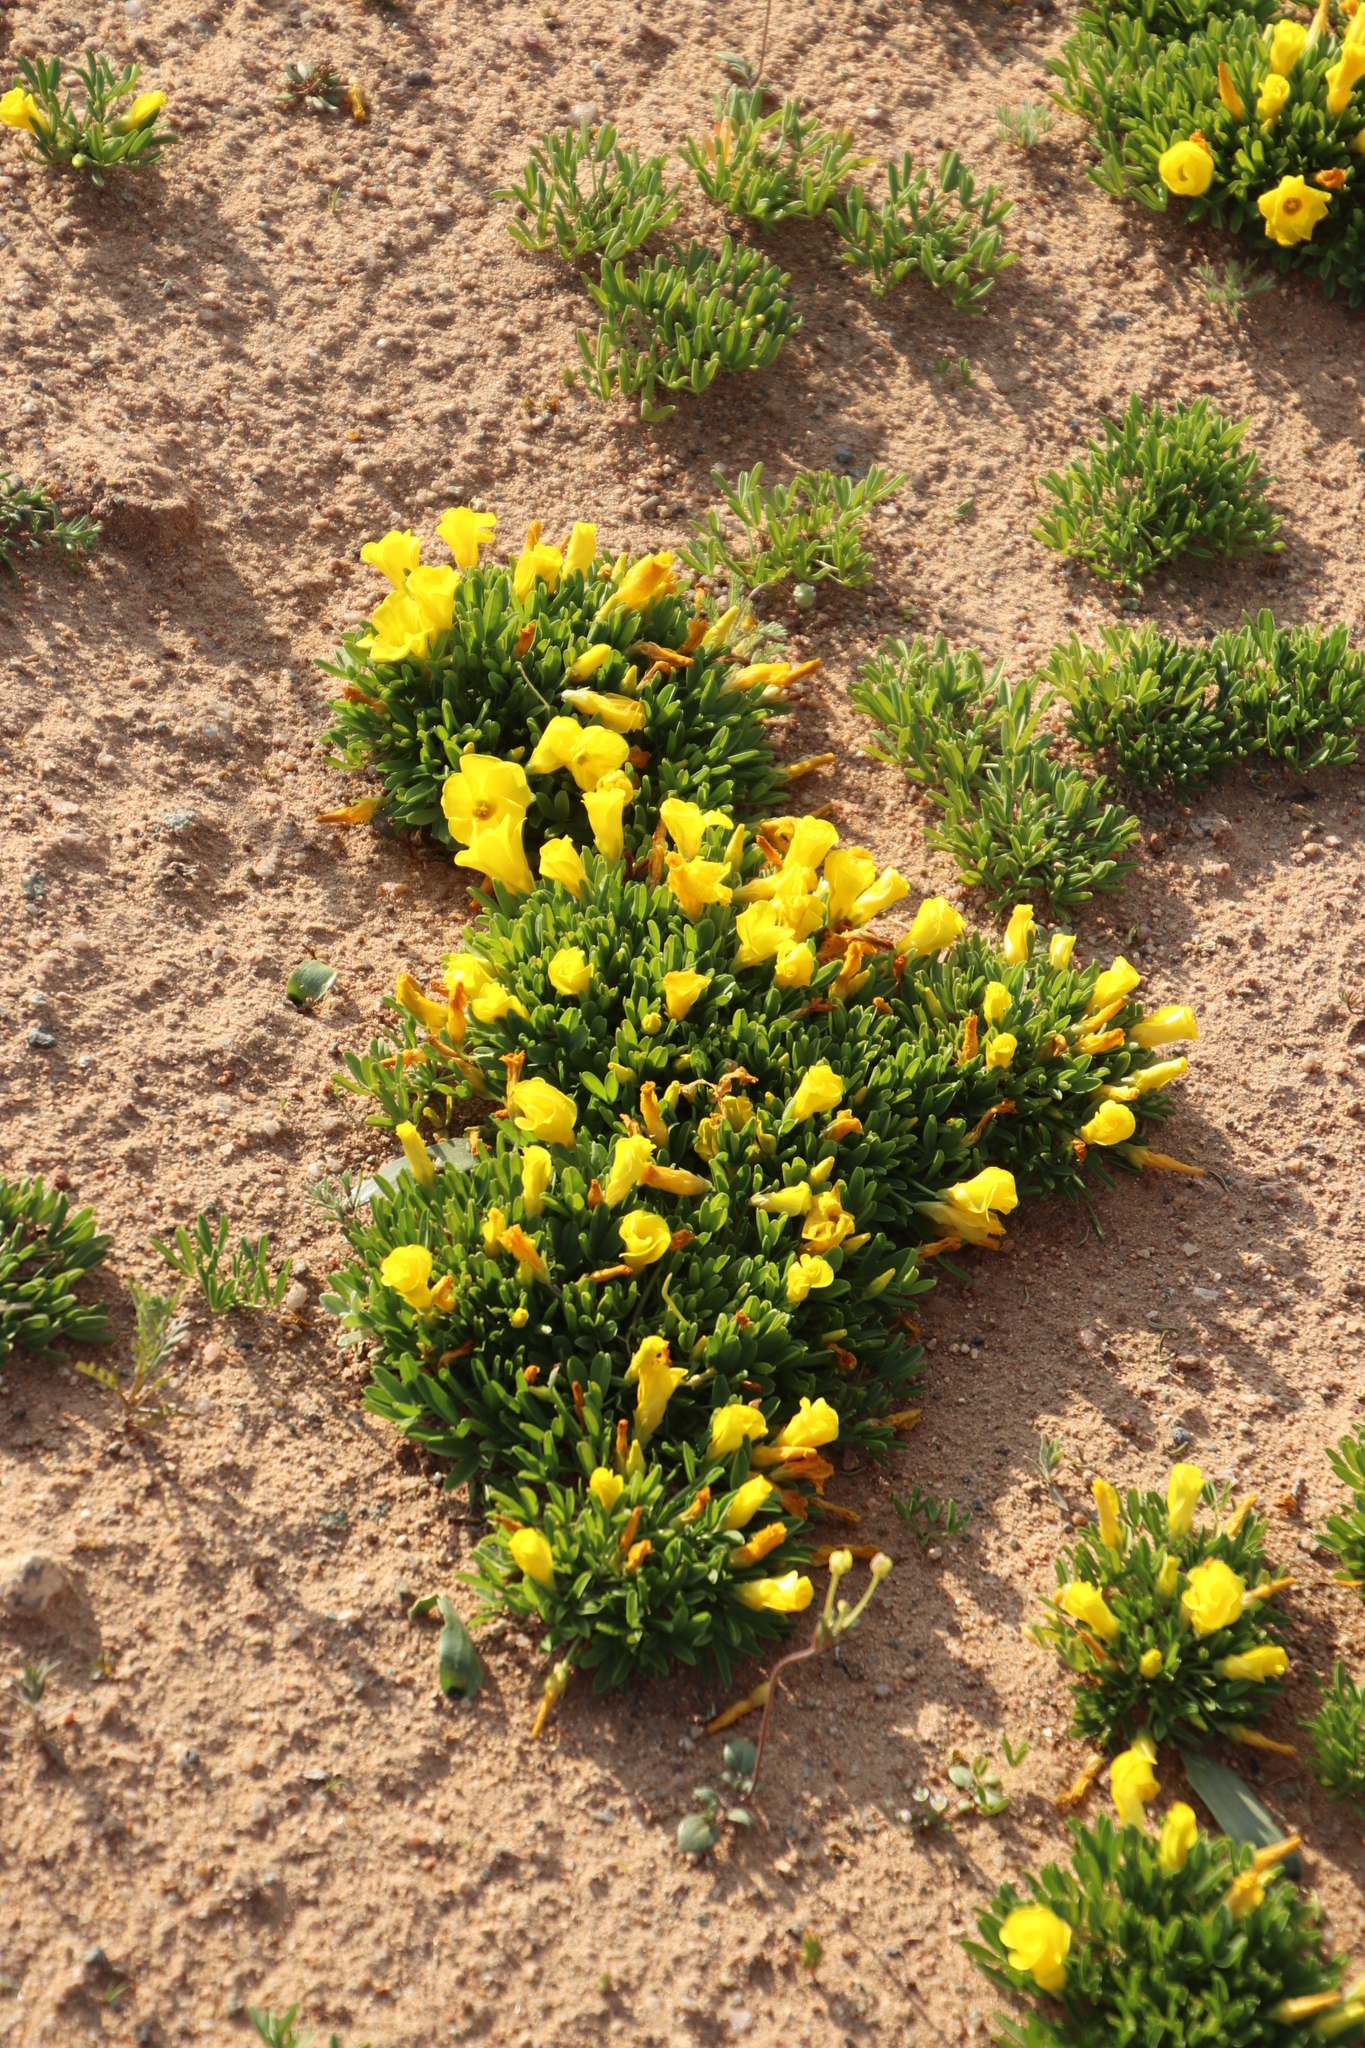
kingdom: Plantae
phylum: Tracheophyta
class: Magnoliopsida
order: Oxalidales
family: Oxalidaceae
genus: Oxalis
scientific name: Oxalis namaquana
